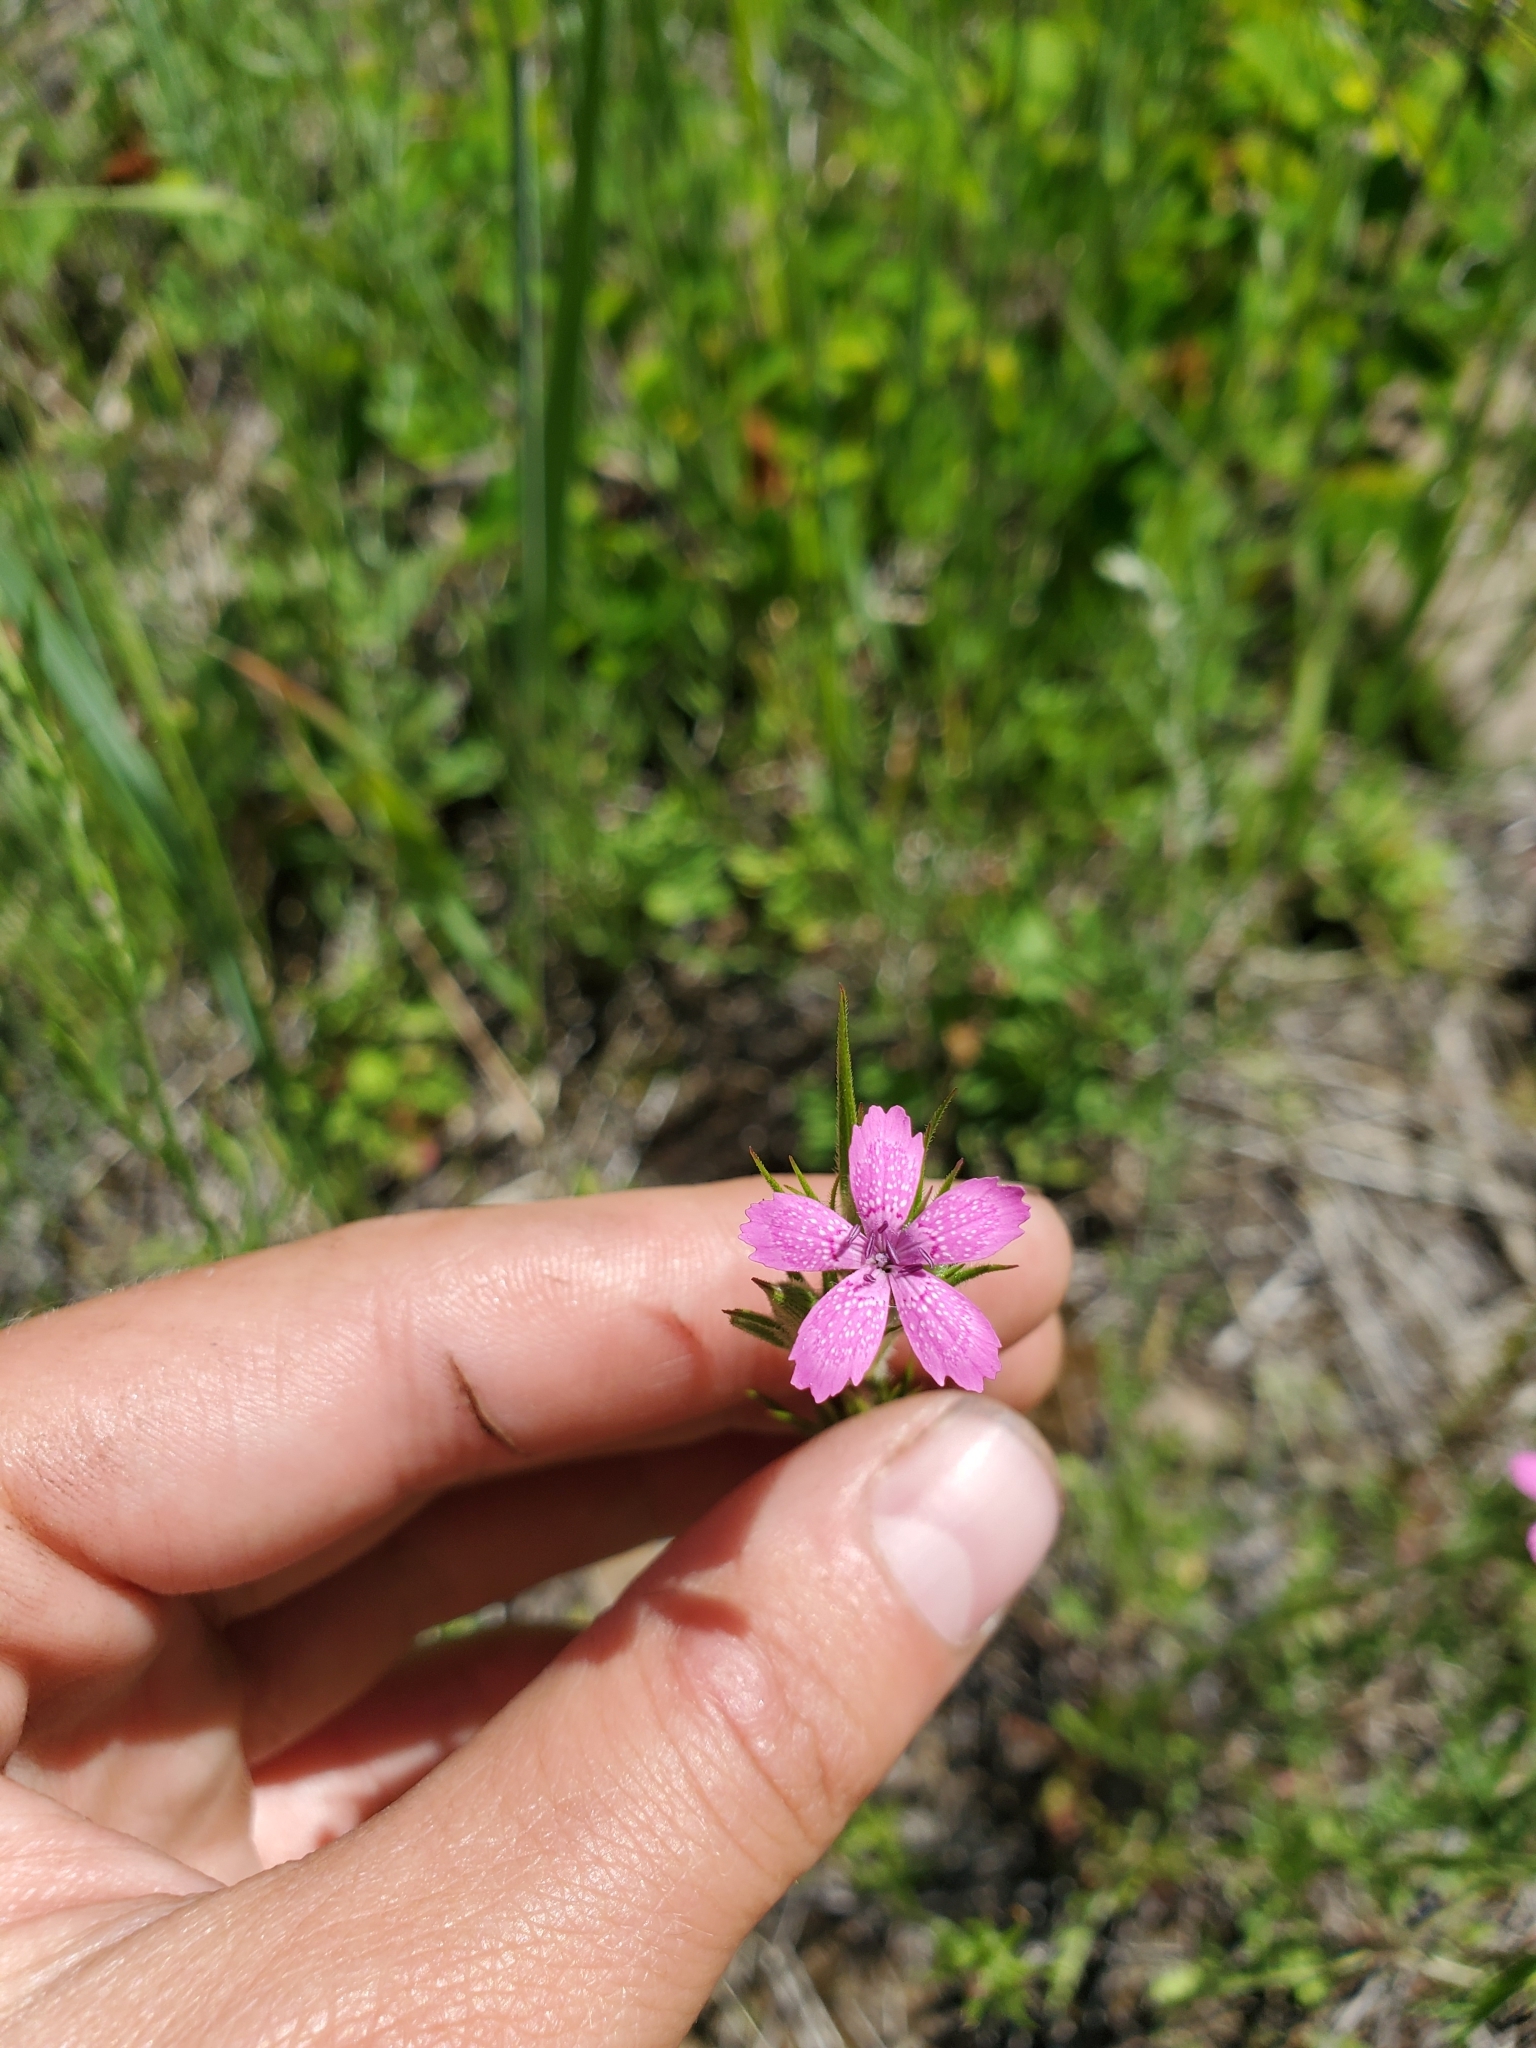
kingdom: Plantae
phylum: Tracheophyta
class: Magnoliopsida
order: Caryophyllales
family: Caryophyllaceae
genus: Dianthus
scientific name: Dianthus armeria
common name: Deptford pink
